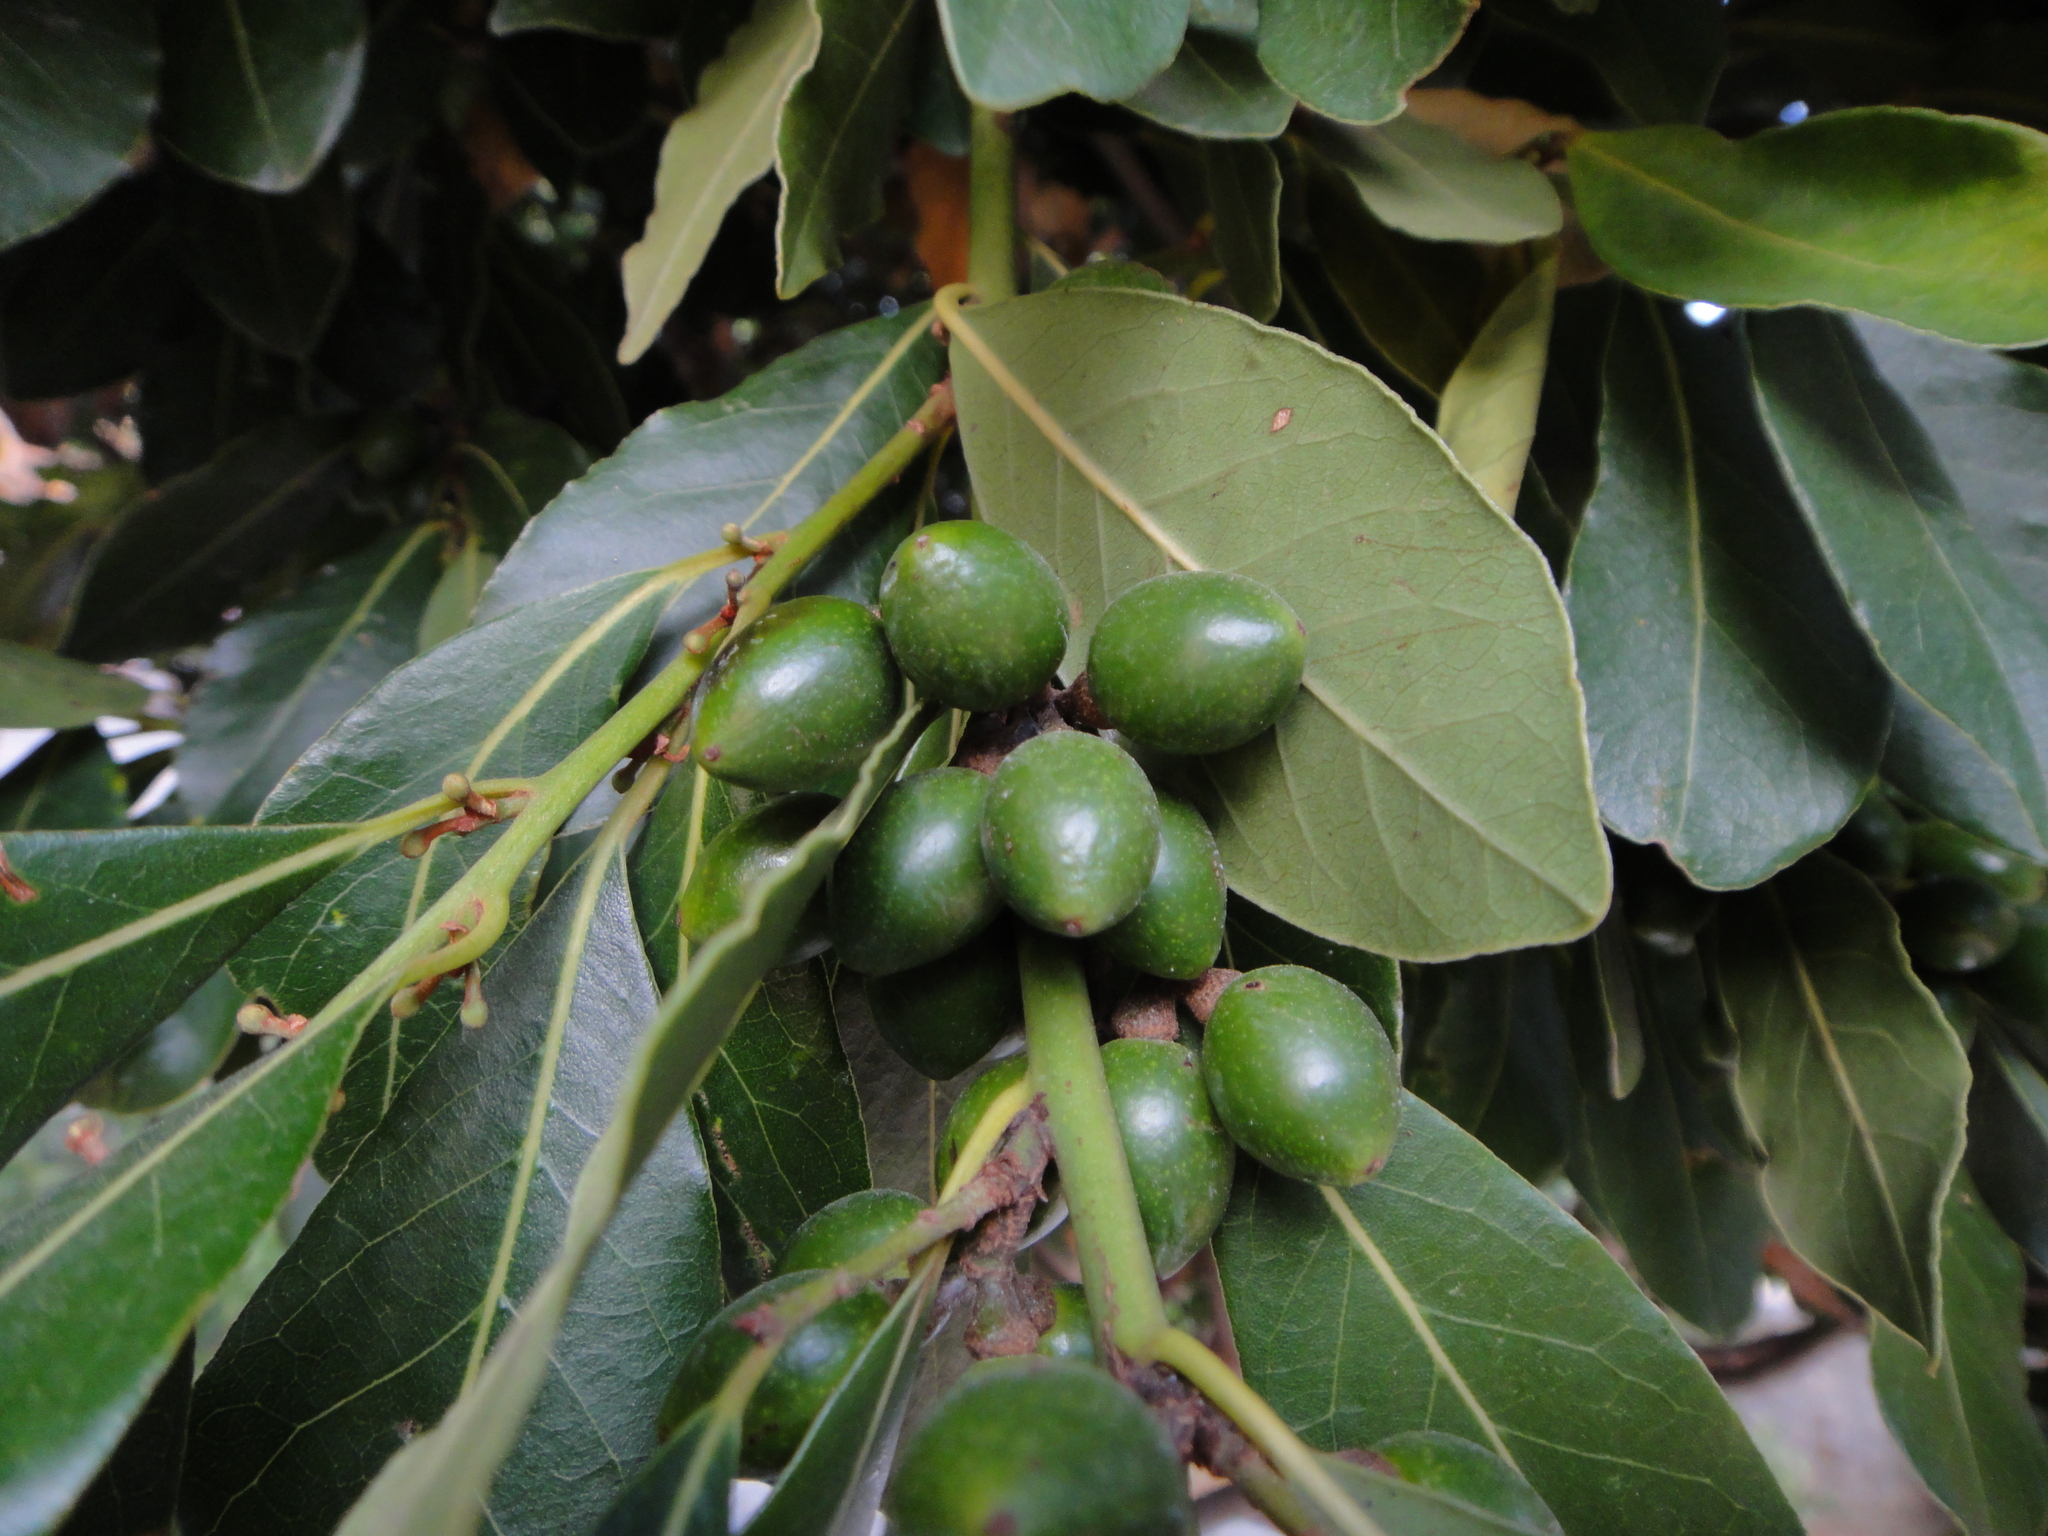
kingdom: Plantae
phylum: Tracheophyta
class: Magnoliopsida
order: Laurales
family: Lauraceae
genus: Laurus
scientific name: Laurus nobilis
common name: Bay
